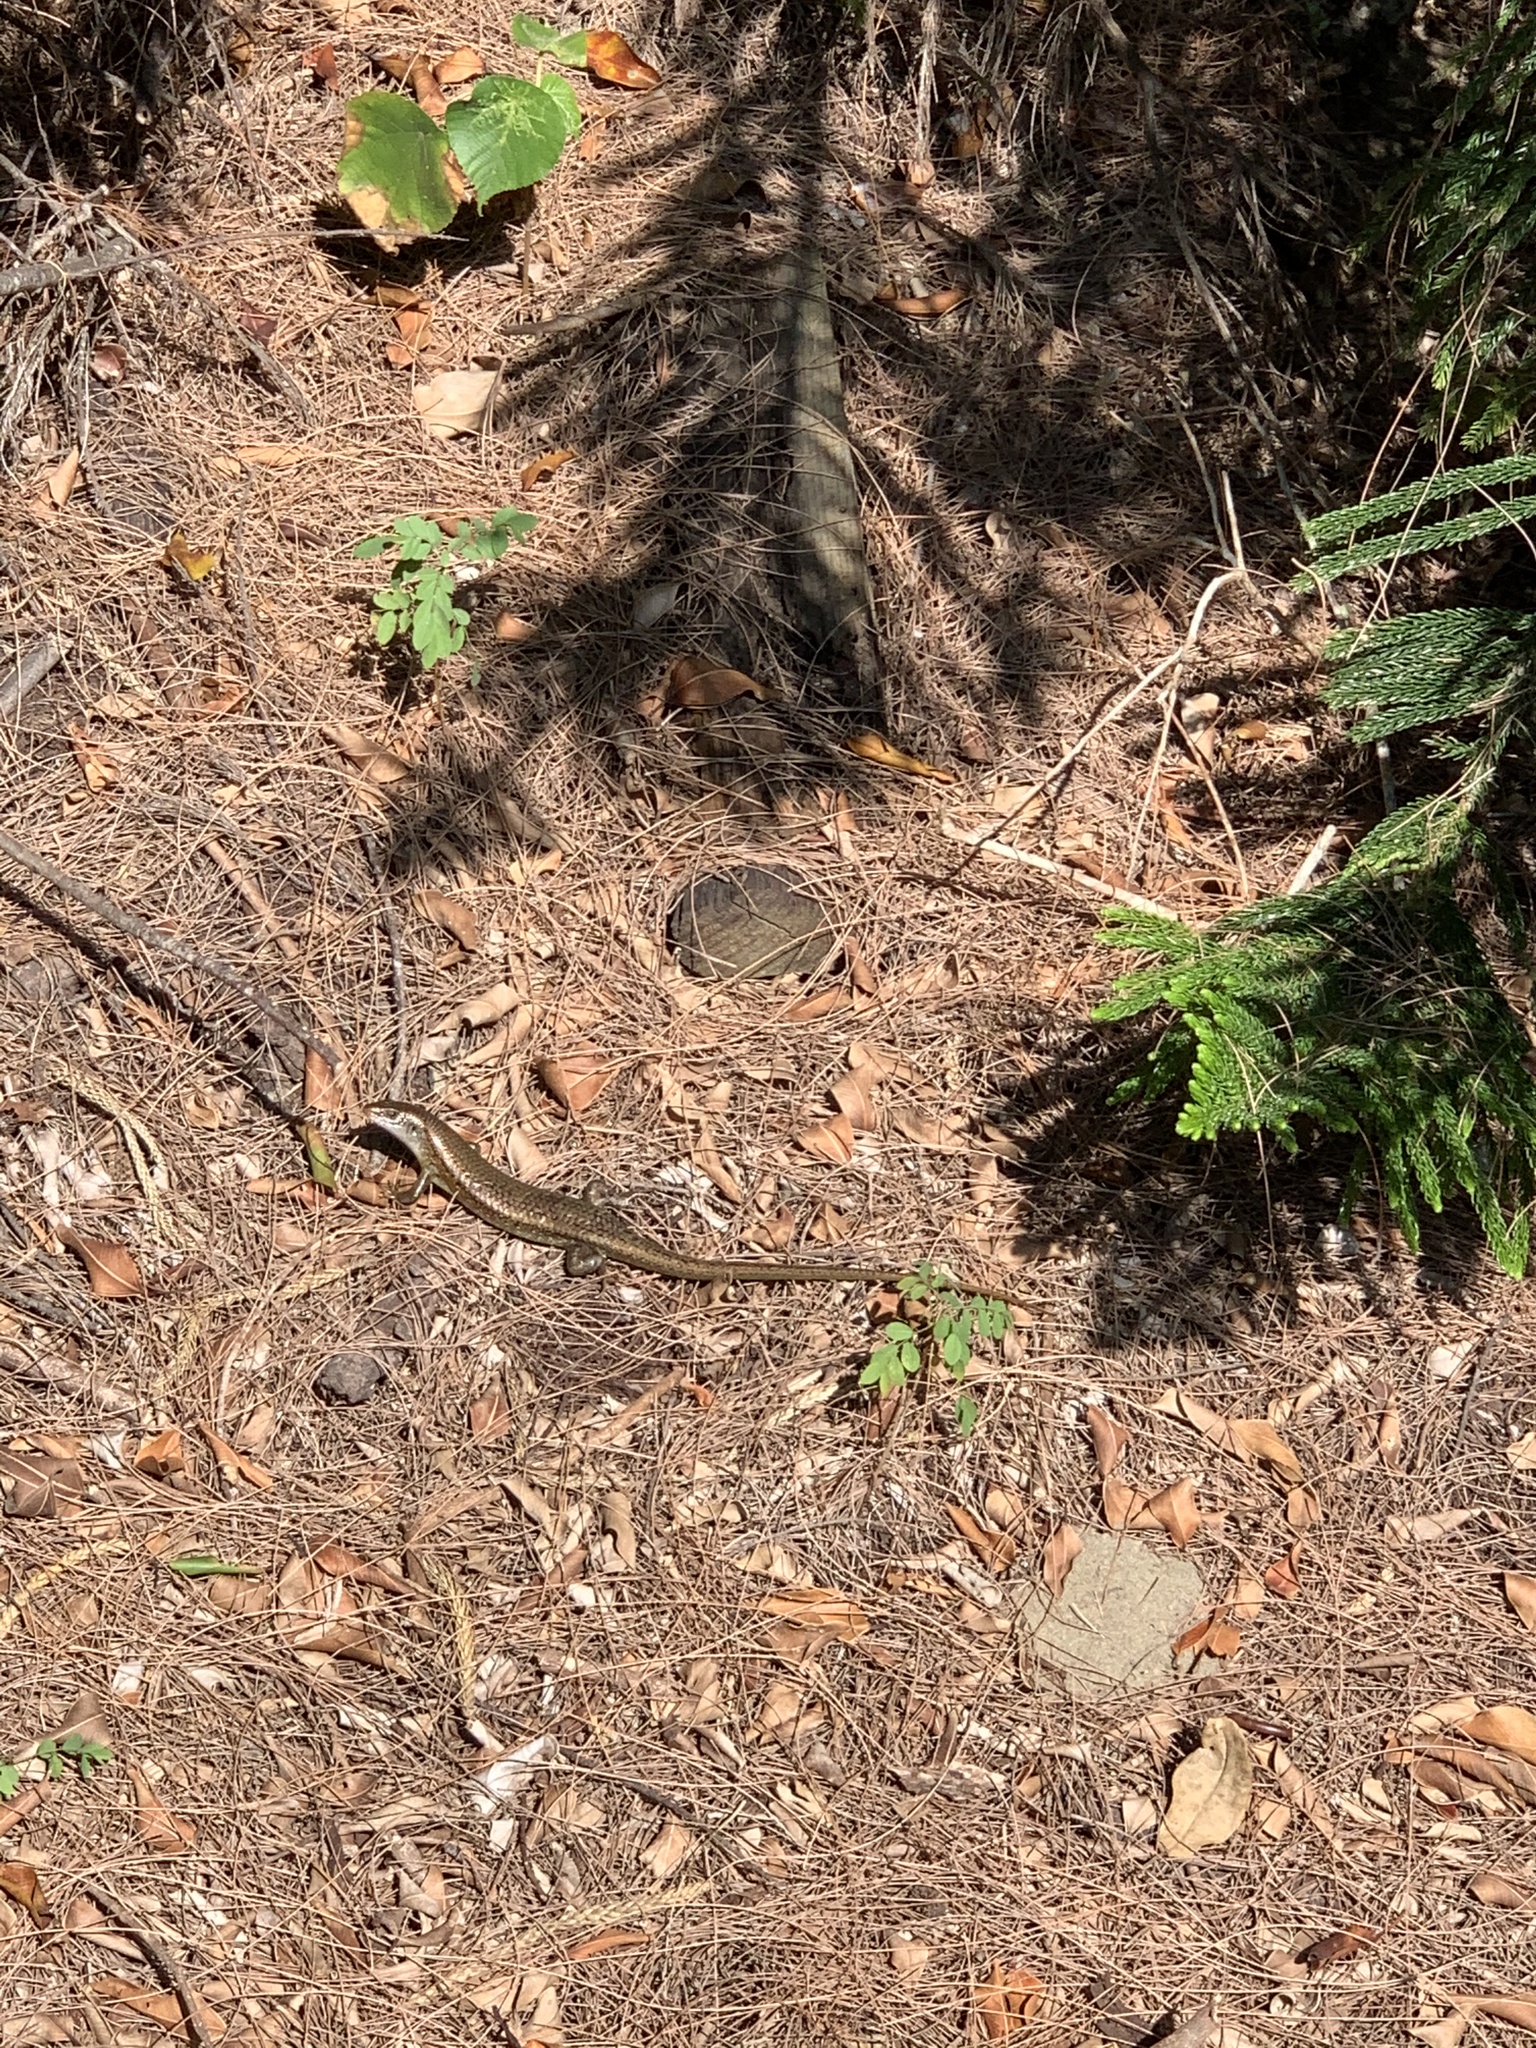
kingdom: Animalia
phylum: Chordata
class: Squamata
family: Scincidae
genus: Eutropis
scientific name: Eutropis multifasciata
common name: Common mabuya
